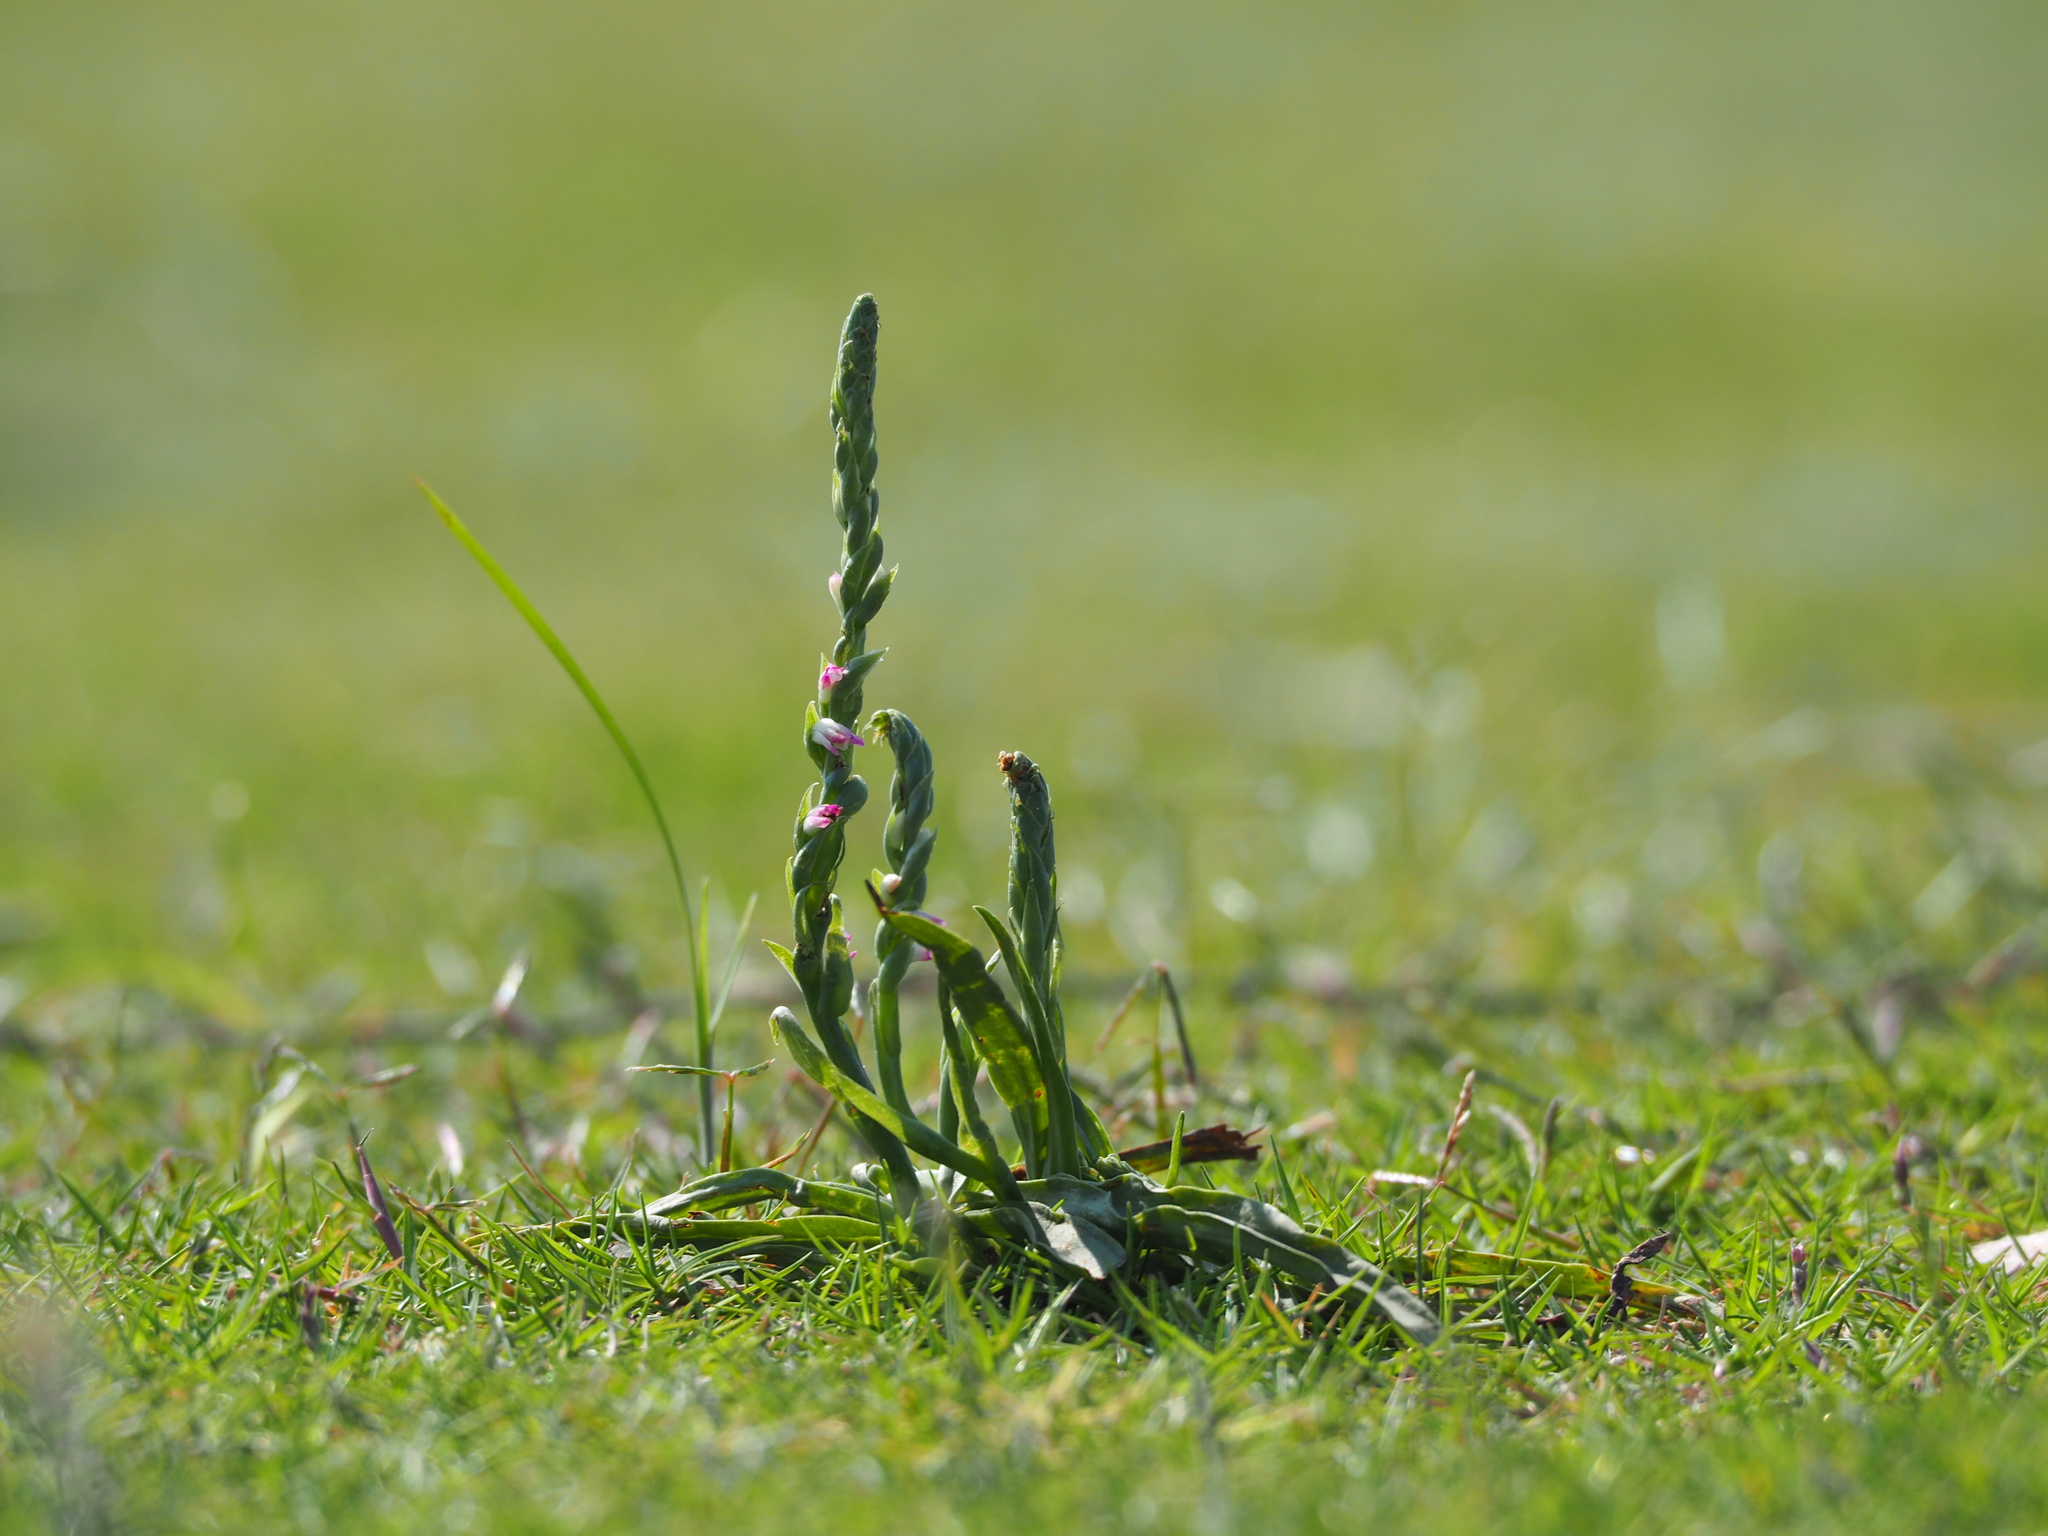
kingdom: Plantae
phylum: Tracheophyta
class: Liliopsida
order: Asparagales
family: Orchidaceae
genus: Spiranthes
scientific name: Spiranthes sinensis
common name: Chinese spiranthes
